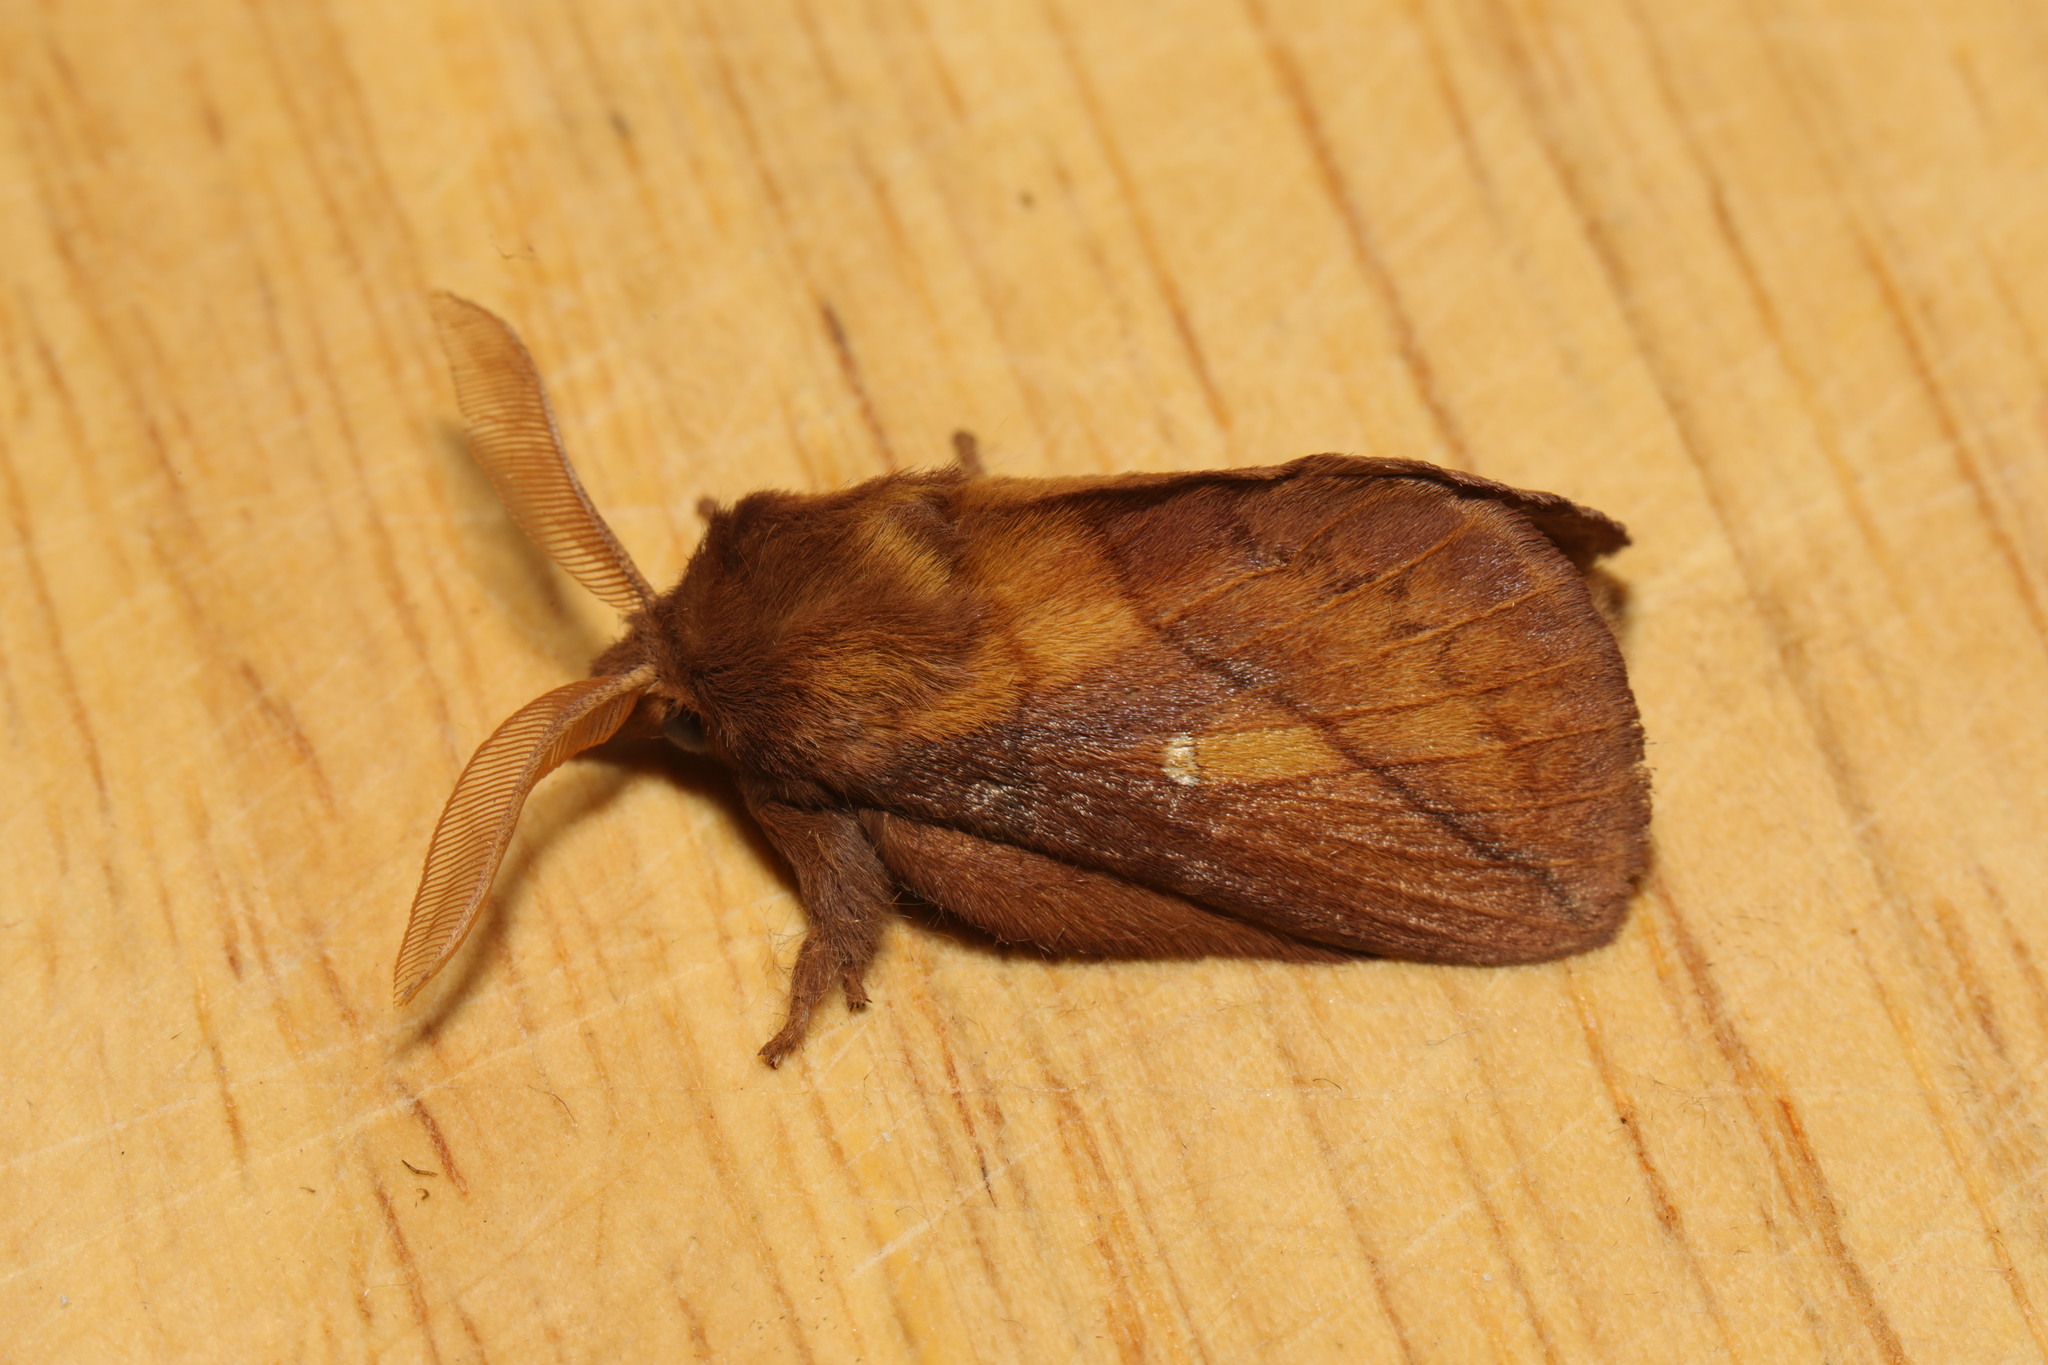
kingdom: Animalia
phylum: Arthropoda
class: Insecta
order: Lepidoptera
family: Lasiocampidae
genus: Euthrix
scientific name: Euthrix potatoria
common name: Drinker
